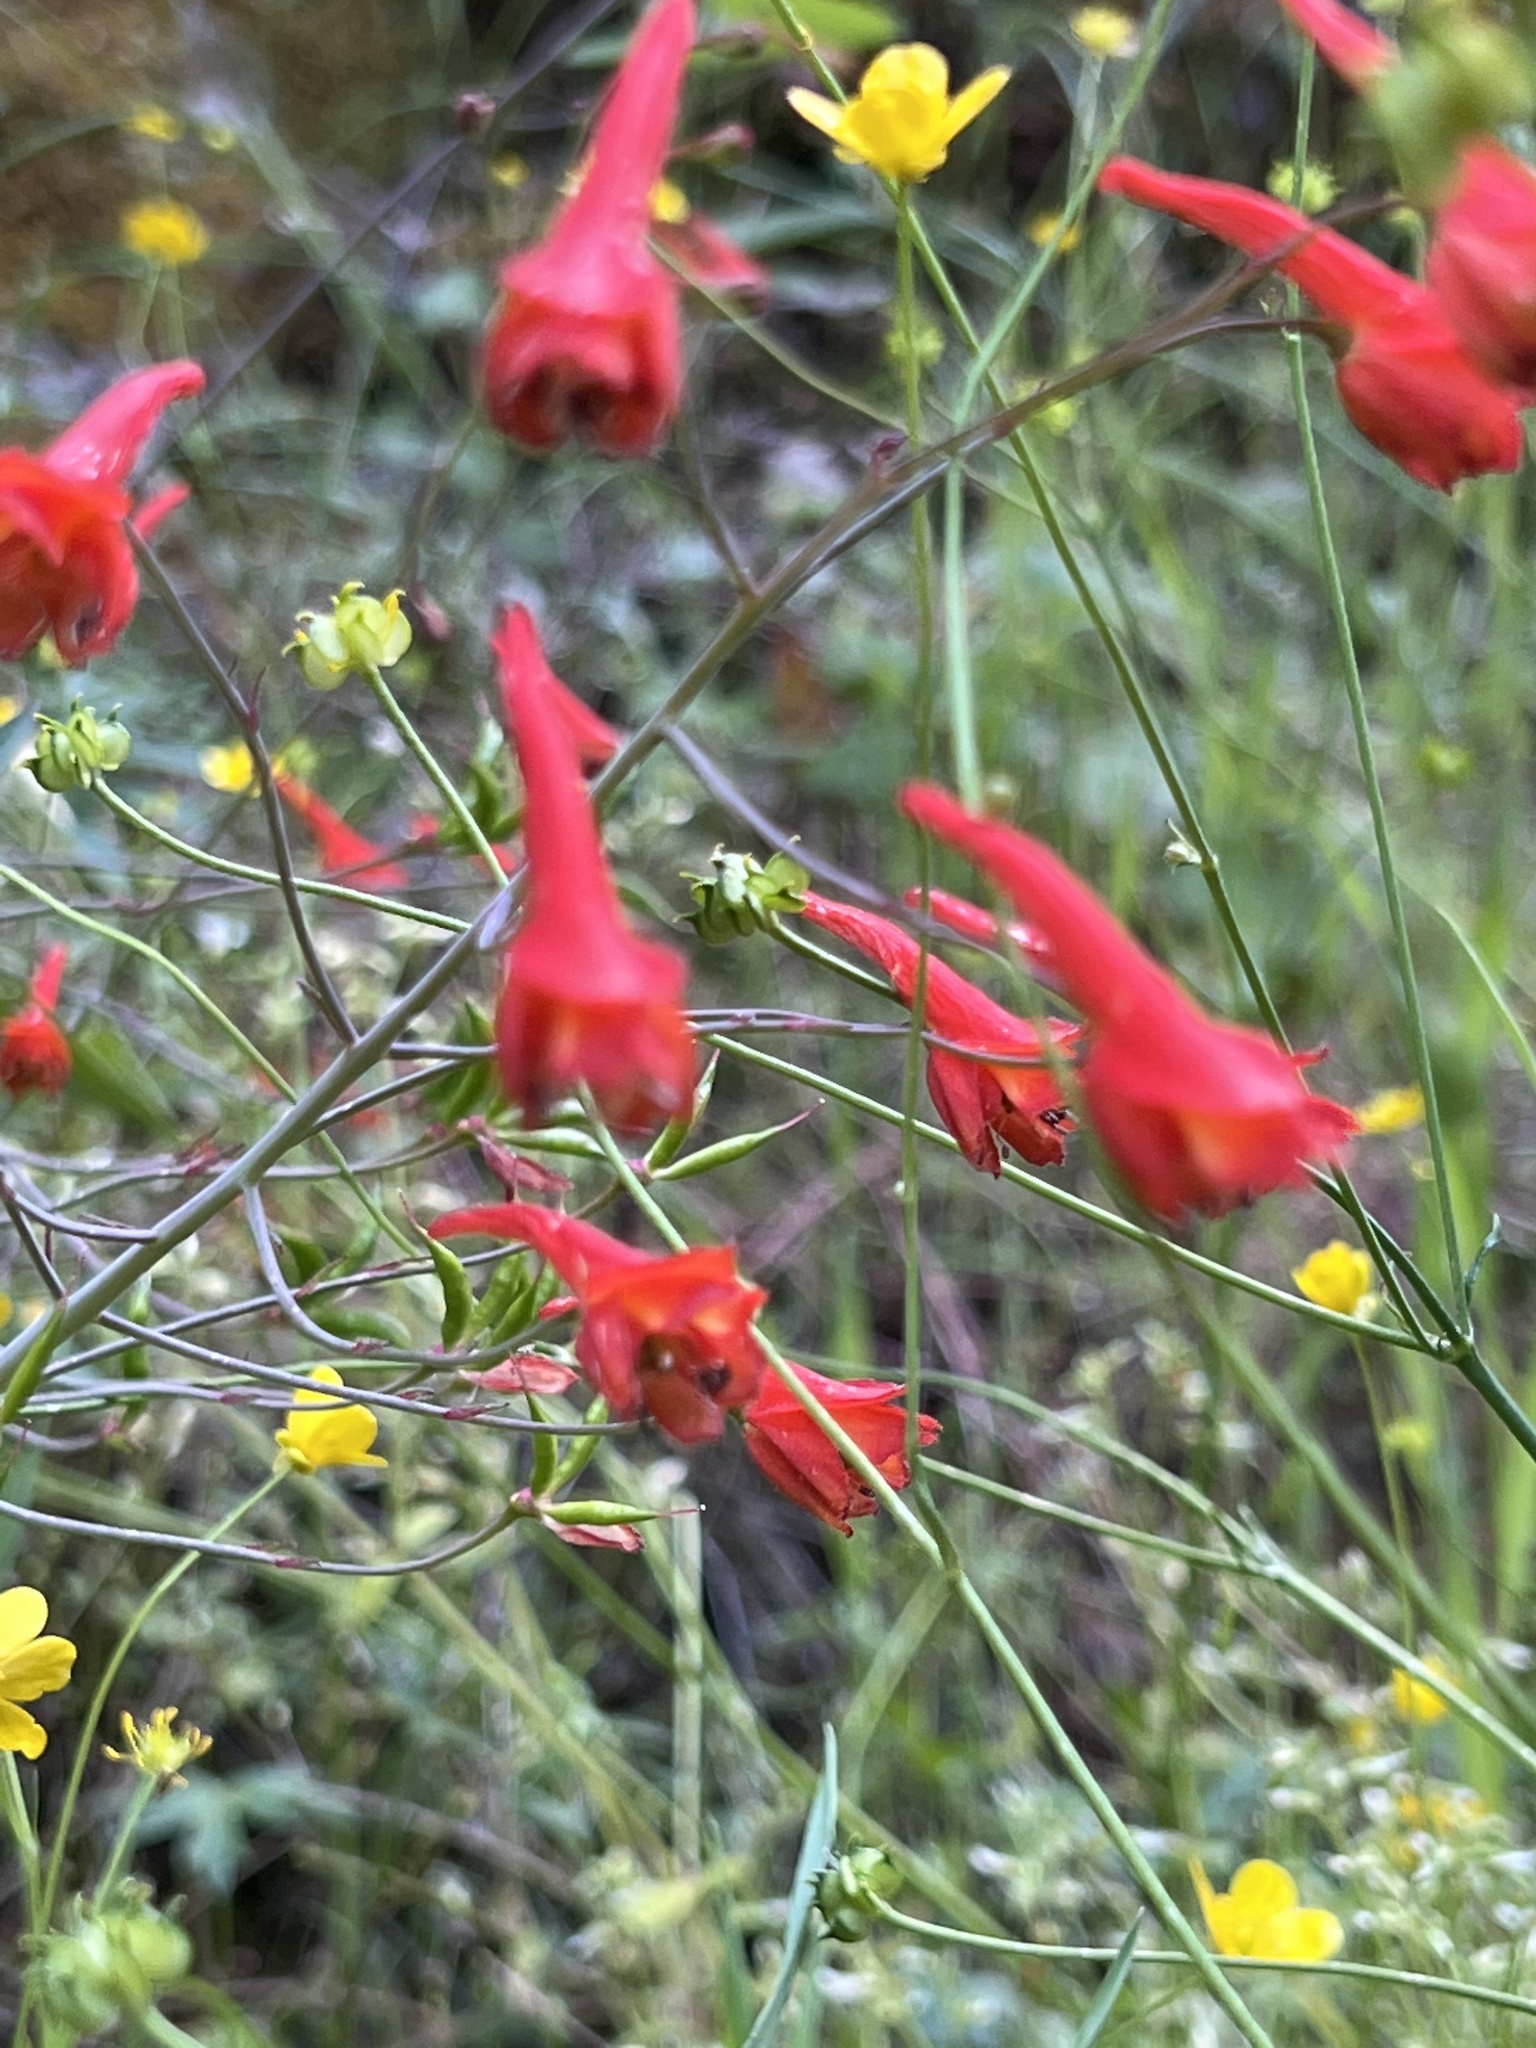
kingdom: Plantae
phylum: Tracheophyta
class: Magnoliopsida
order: Ranunculales
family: Ranunculaceae
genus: Delphinium
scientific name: Delphinium nudicaule
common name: Red larkspur
